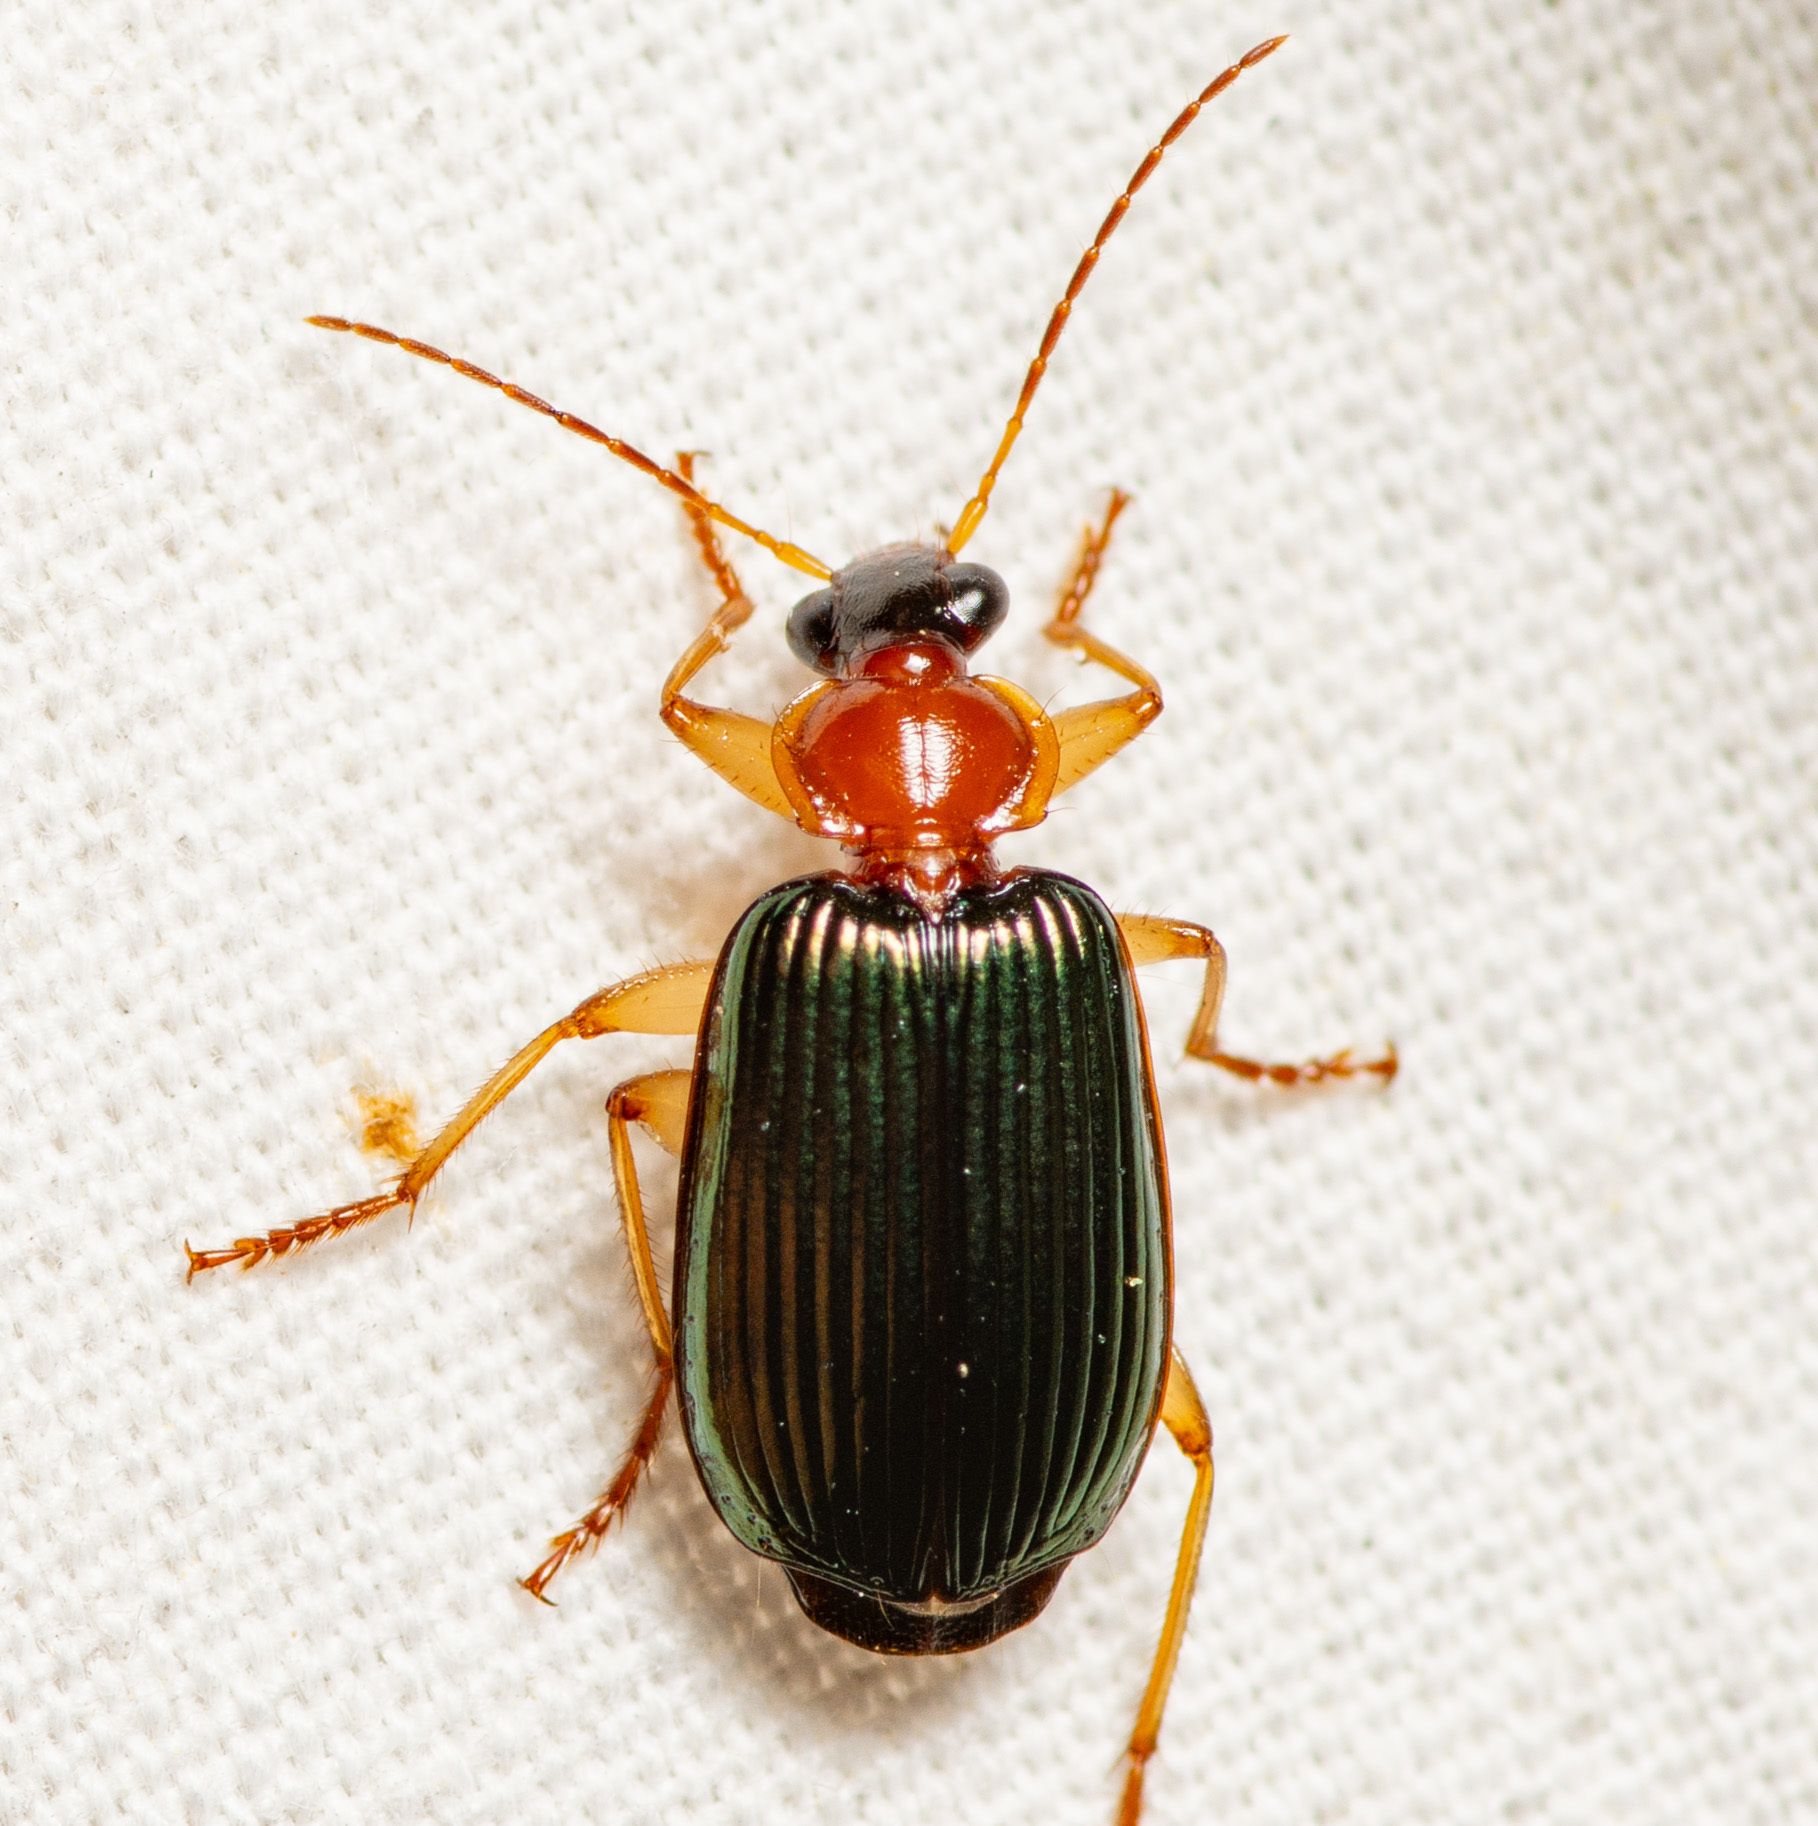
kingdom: Animalia
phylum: Arthropoda
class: Insecta
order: Coleoptera
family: Carabidae
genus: Lebia
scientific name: Lebia tricolor
